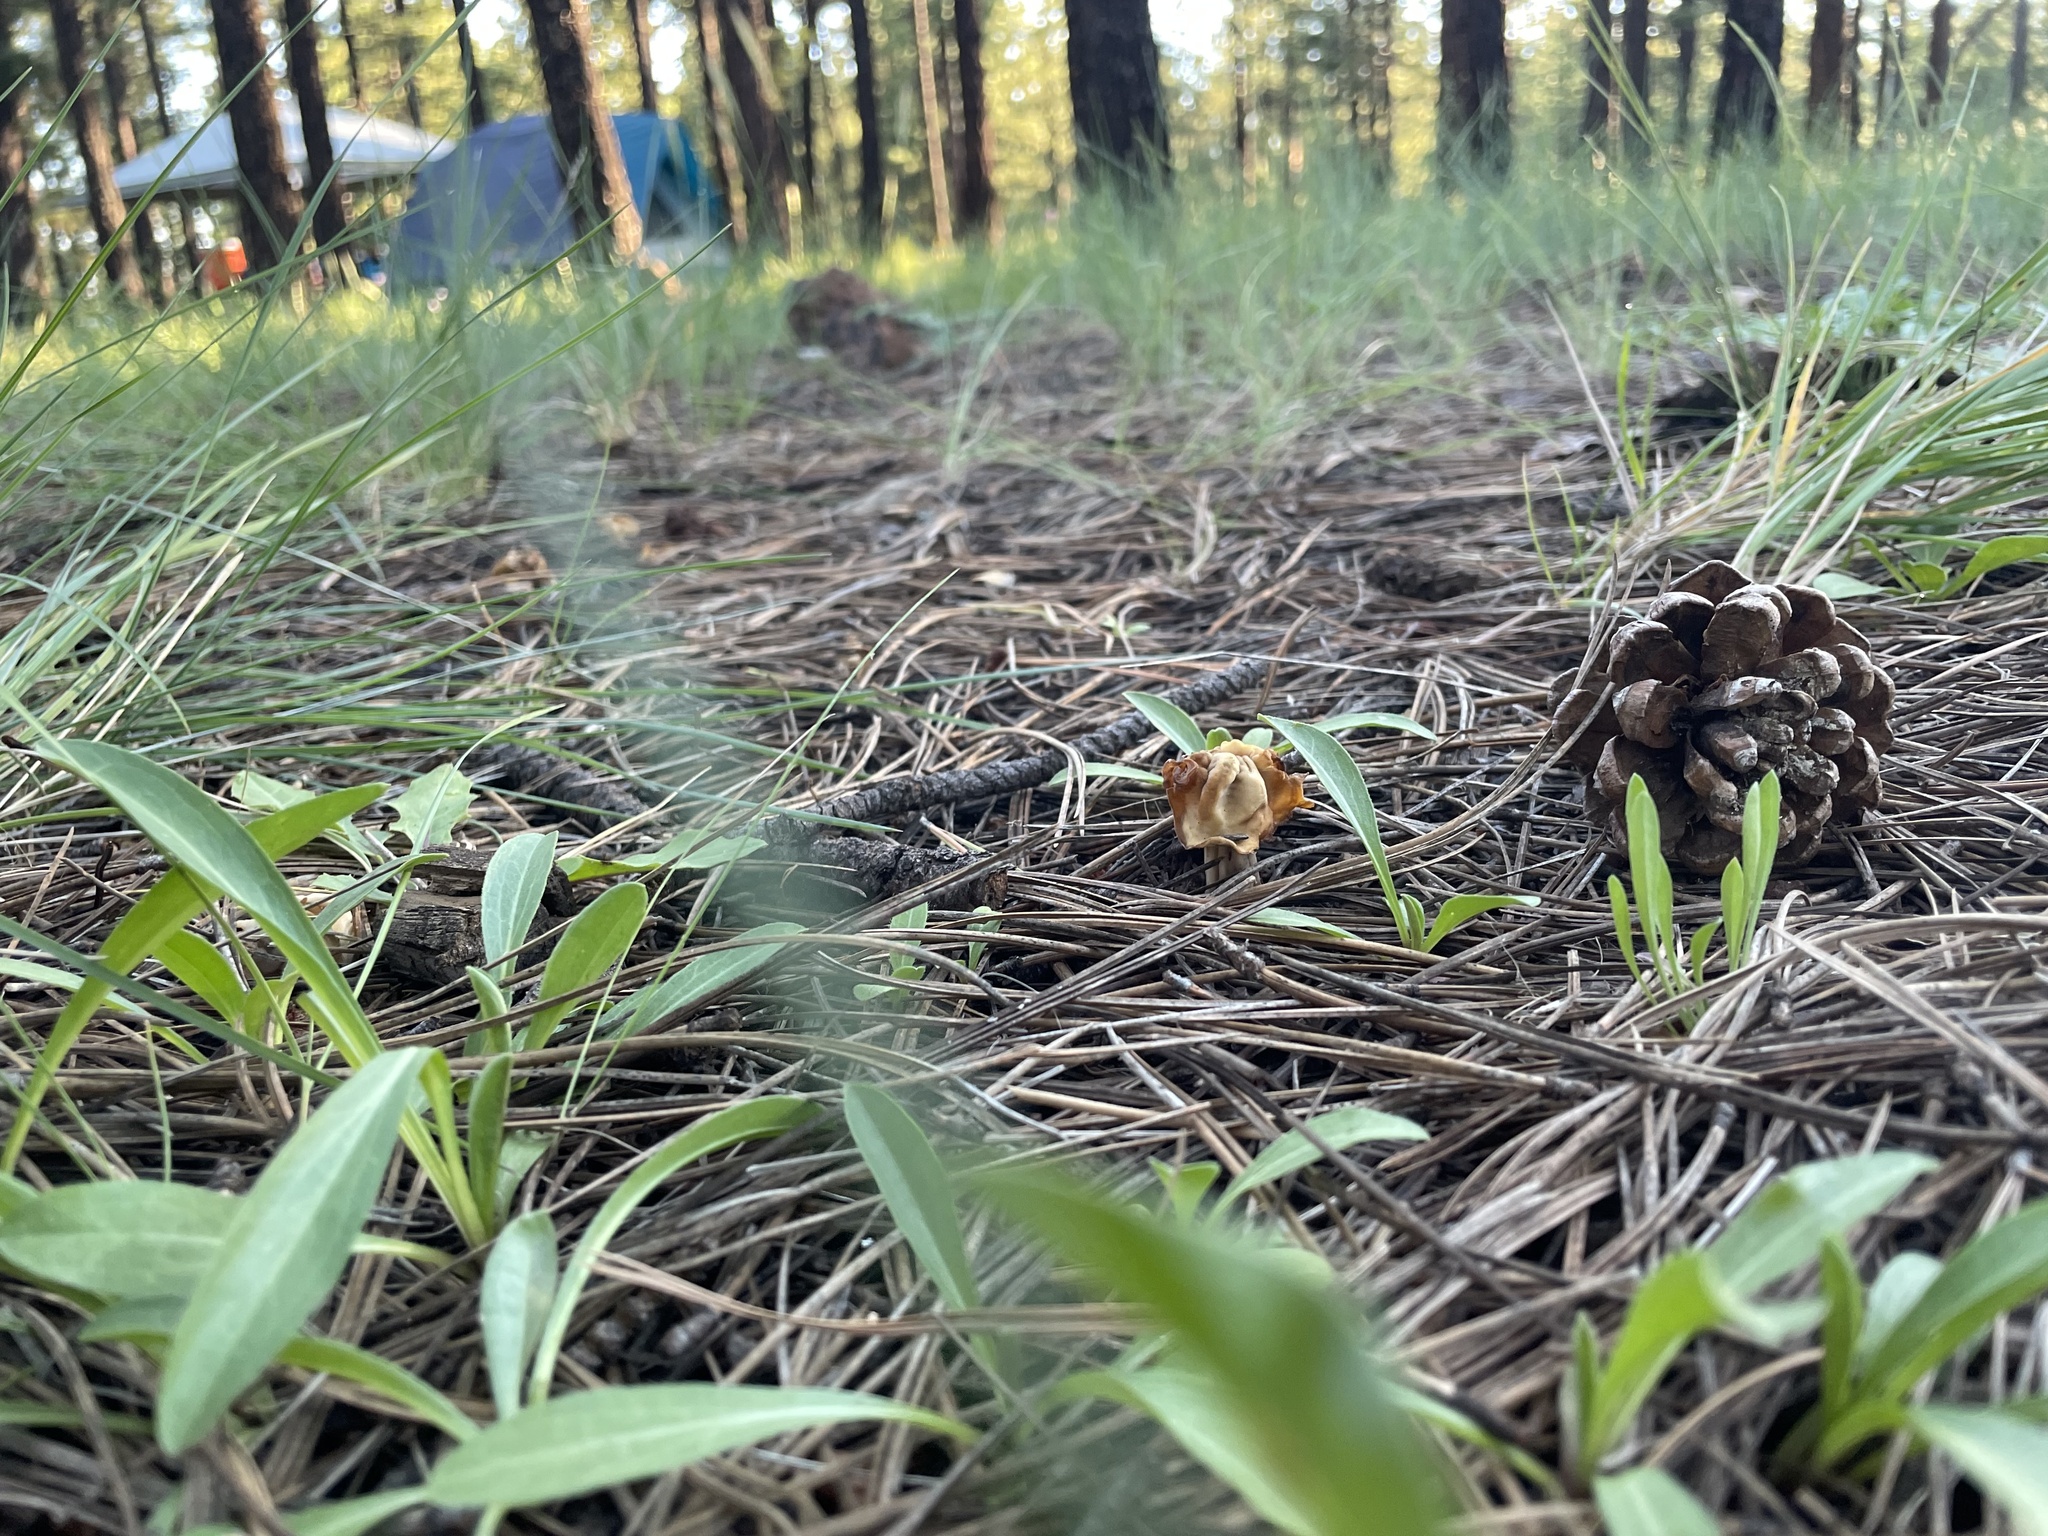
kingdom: Fungi
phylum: Ascomycota
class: Pezizomycetes
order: Pezizales
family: Helvellaceae
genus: Helvella
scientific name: Helvella crispa
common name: White saddle
